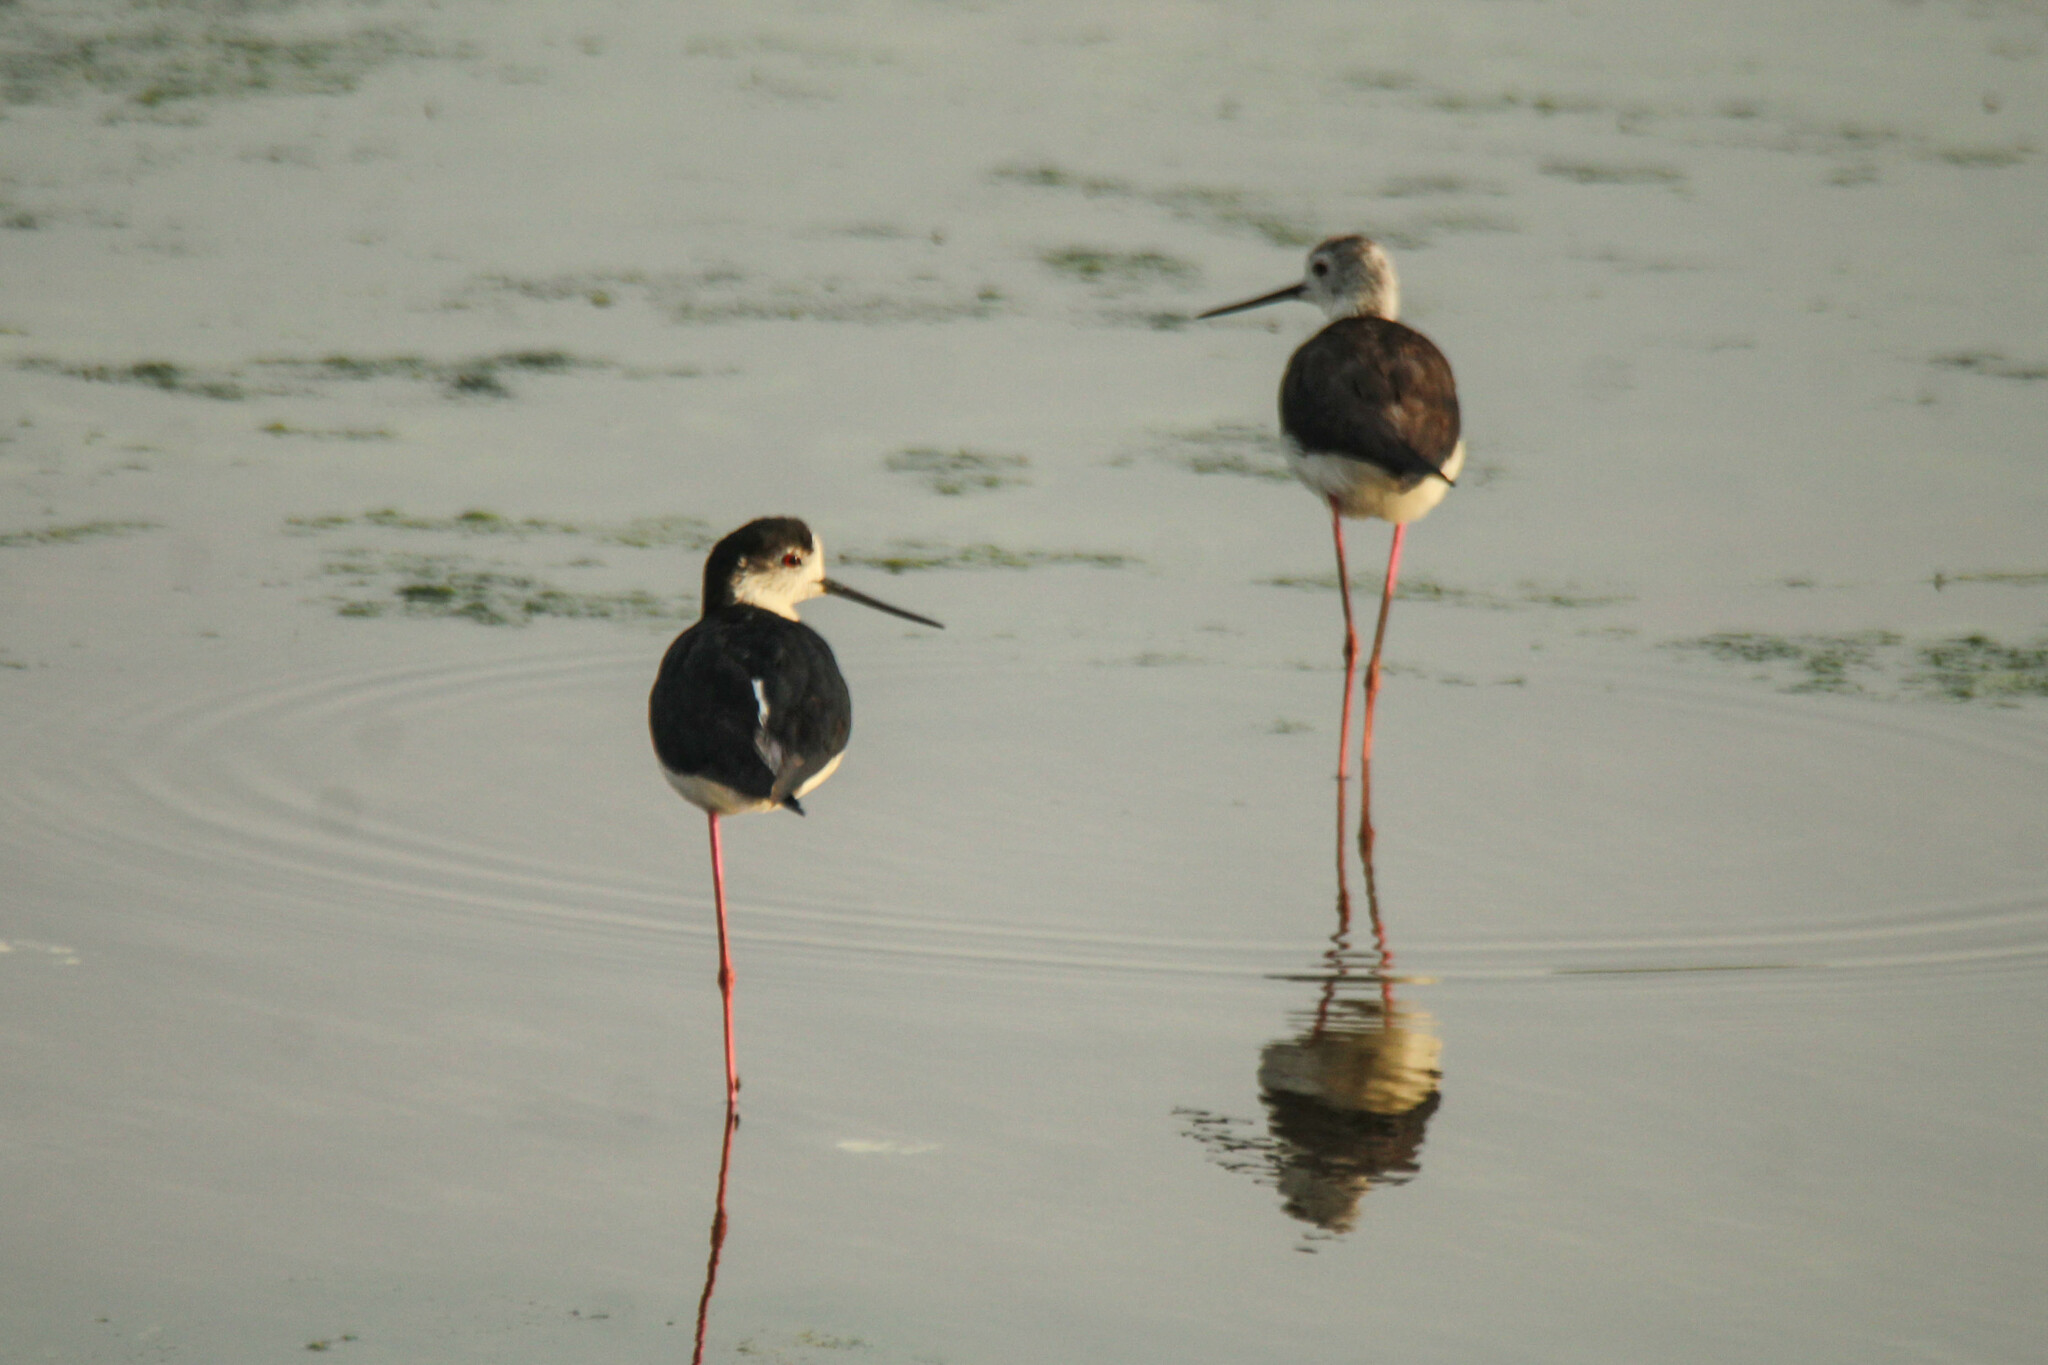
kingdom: Animalia
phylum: Chordata
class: Aves
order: Charadriiformes
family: Recurvirostridae
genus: Himantopus
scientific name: Himantopus himantopus
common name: Black-winged stilt
